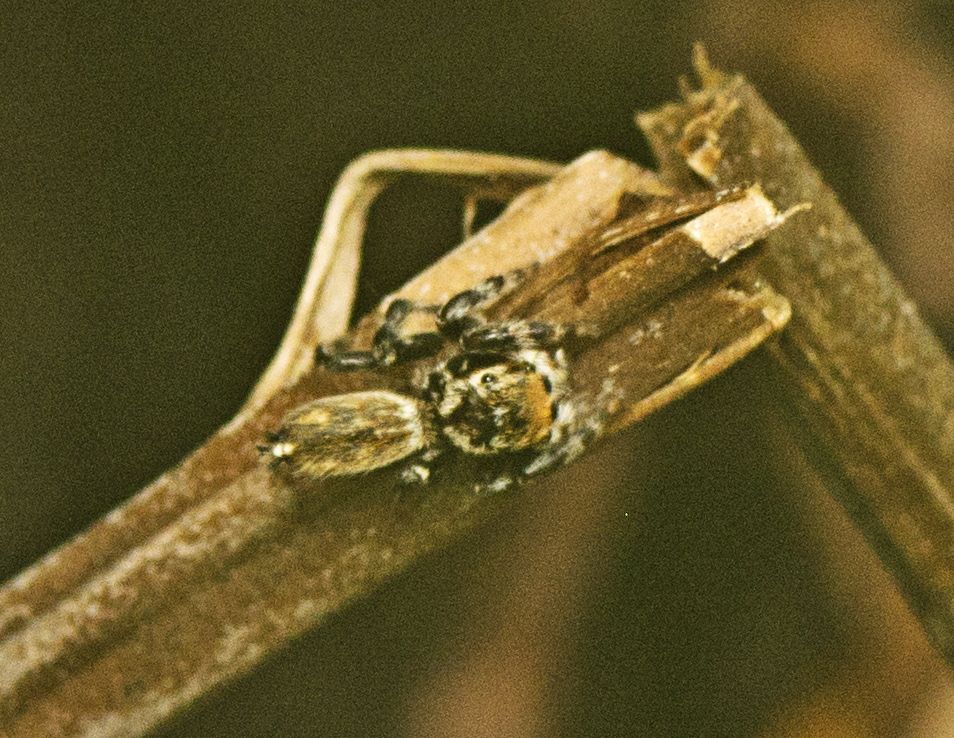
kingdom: Animalia
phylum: Arthropoda
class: Arachnida
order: Araneae
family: Salticidae
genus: Maratus
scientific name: Maratus griseus
